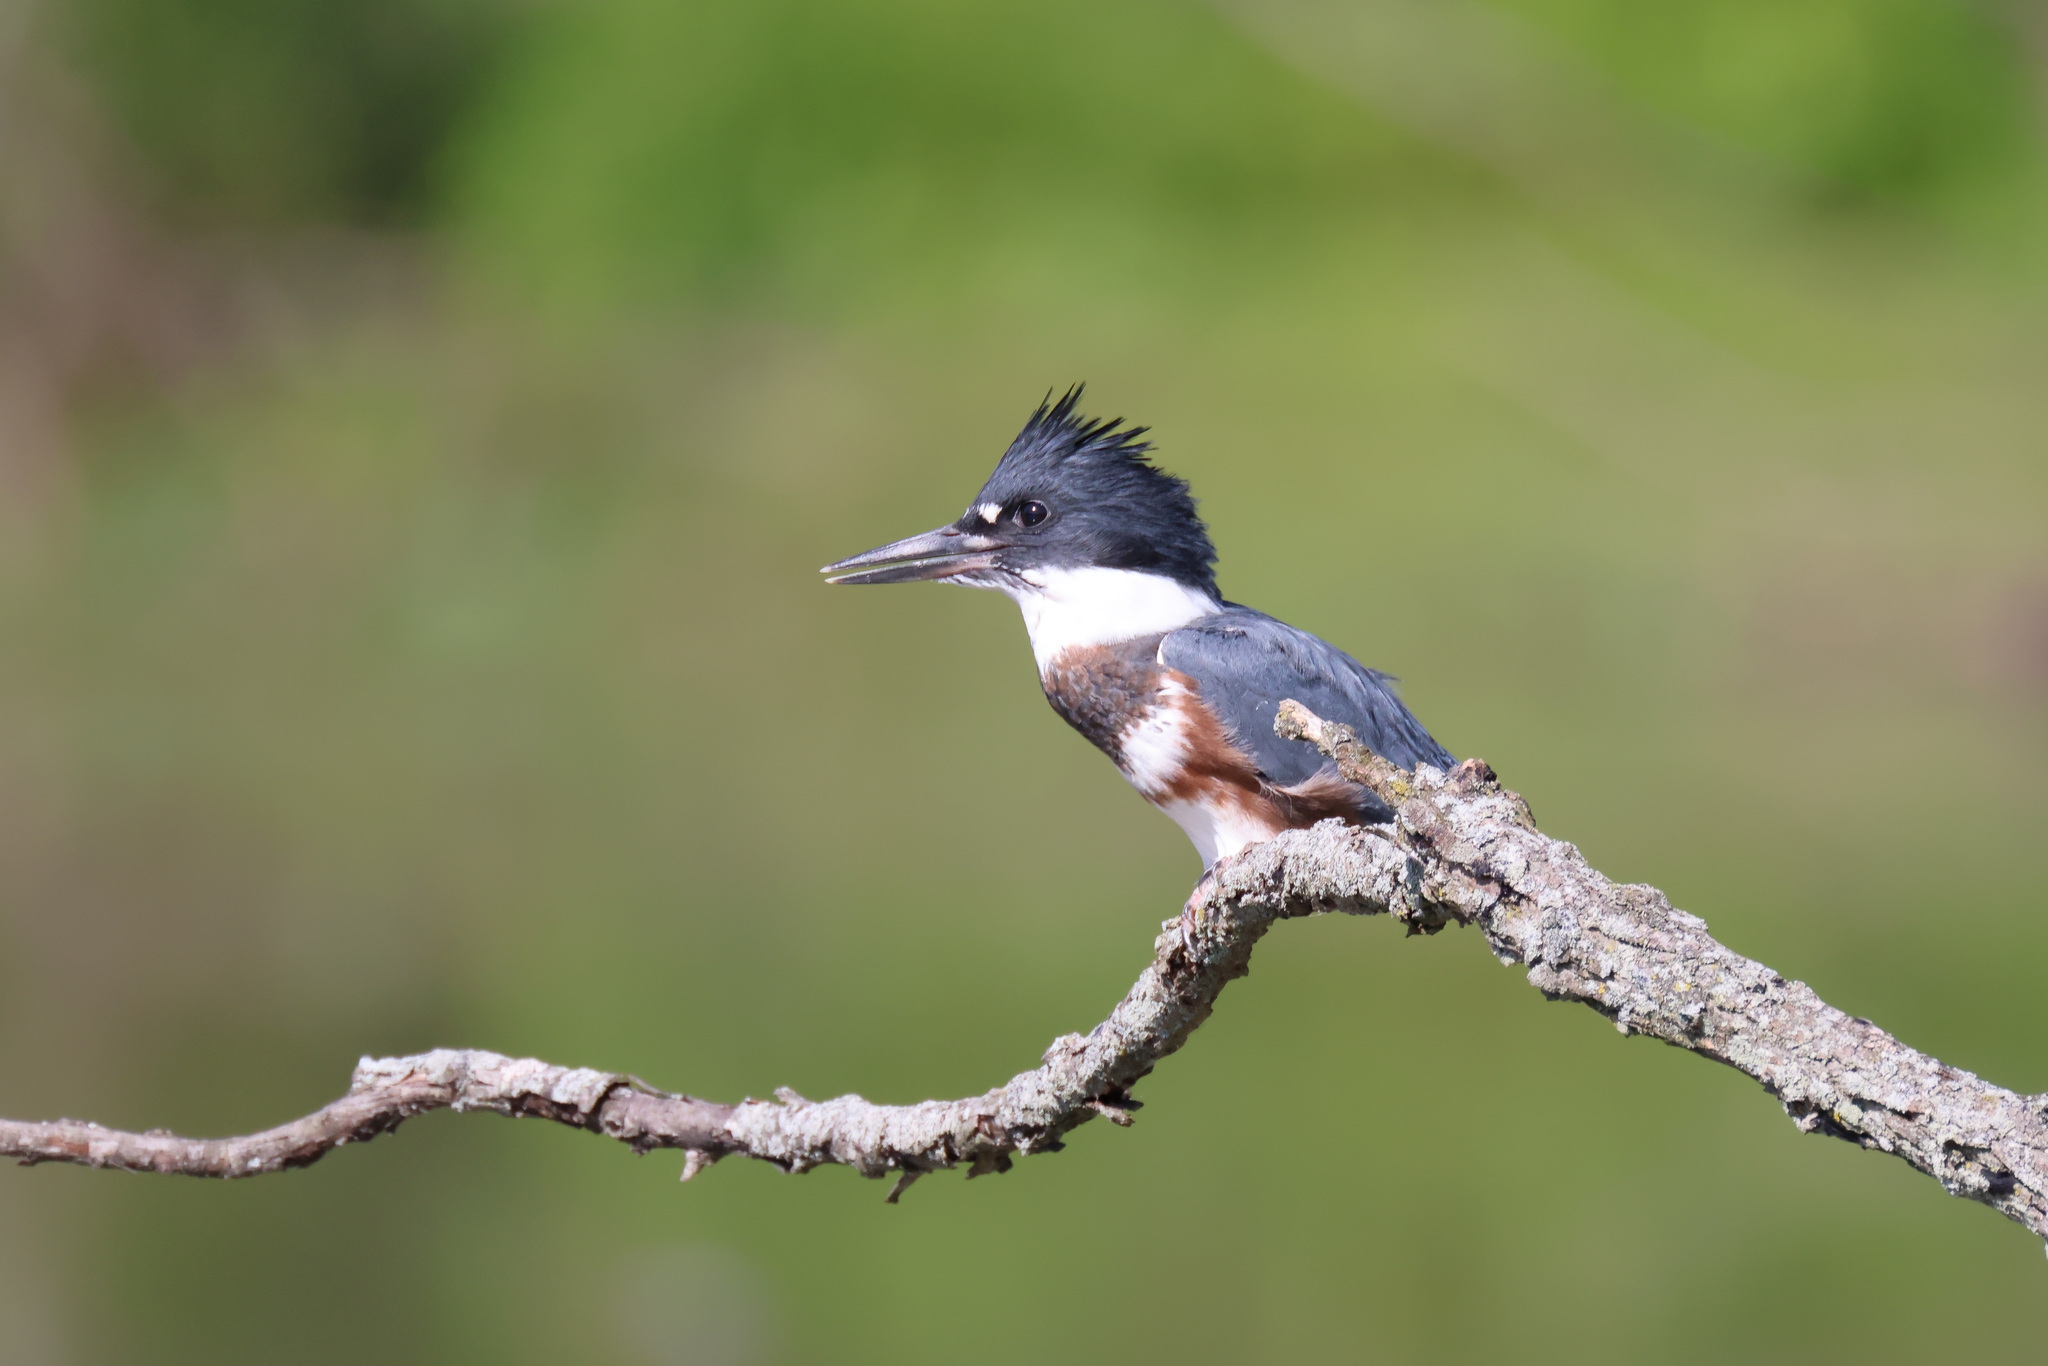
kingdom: Animalia
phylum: Chordata
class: Aves
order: Coraciiformes
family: Alcedinidae
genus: Megaceryle
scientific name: Megaceryle alcyon
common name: Belted kingfisher
